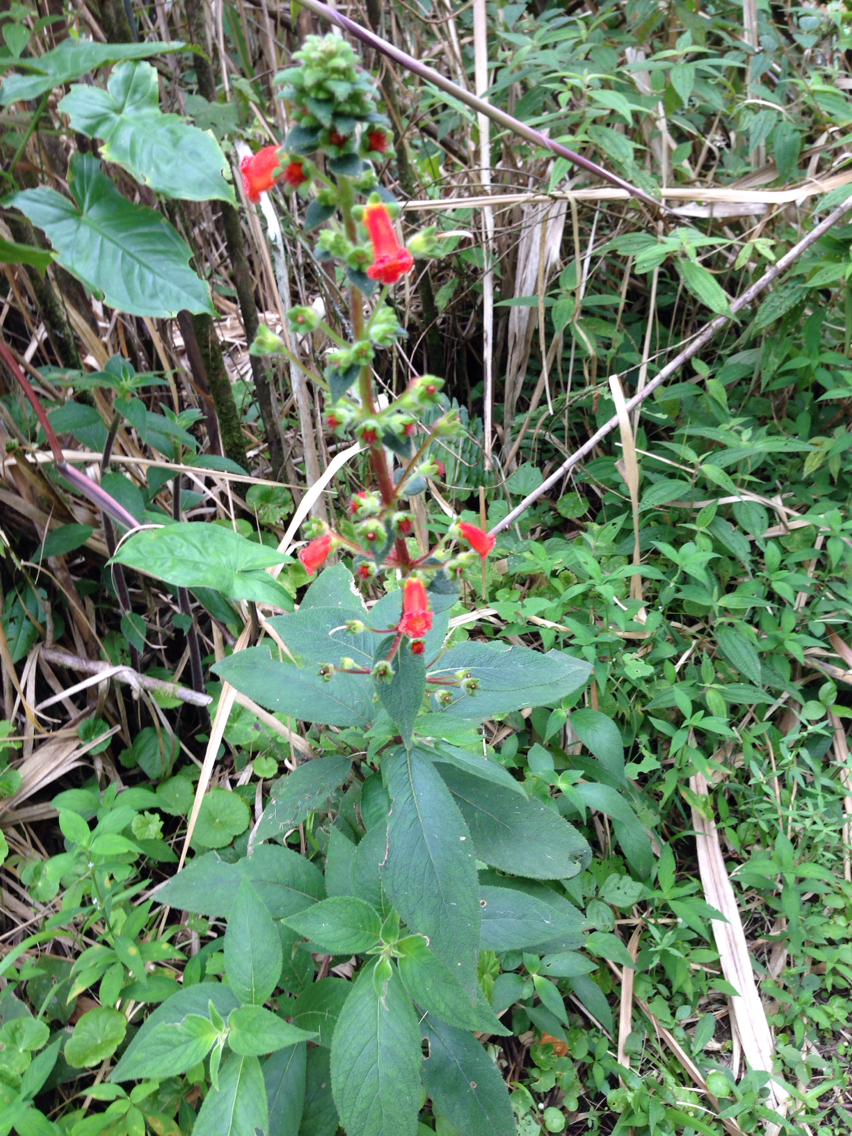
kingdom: Plantae
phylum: Tracheophyta
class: Magnoliopsida
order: Lamiales
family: Gesneriaceae
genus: Kohleria
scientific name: Kohleria spicata
